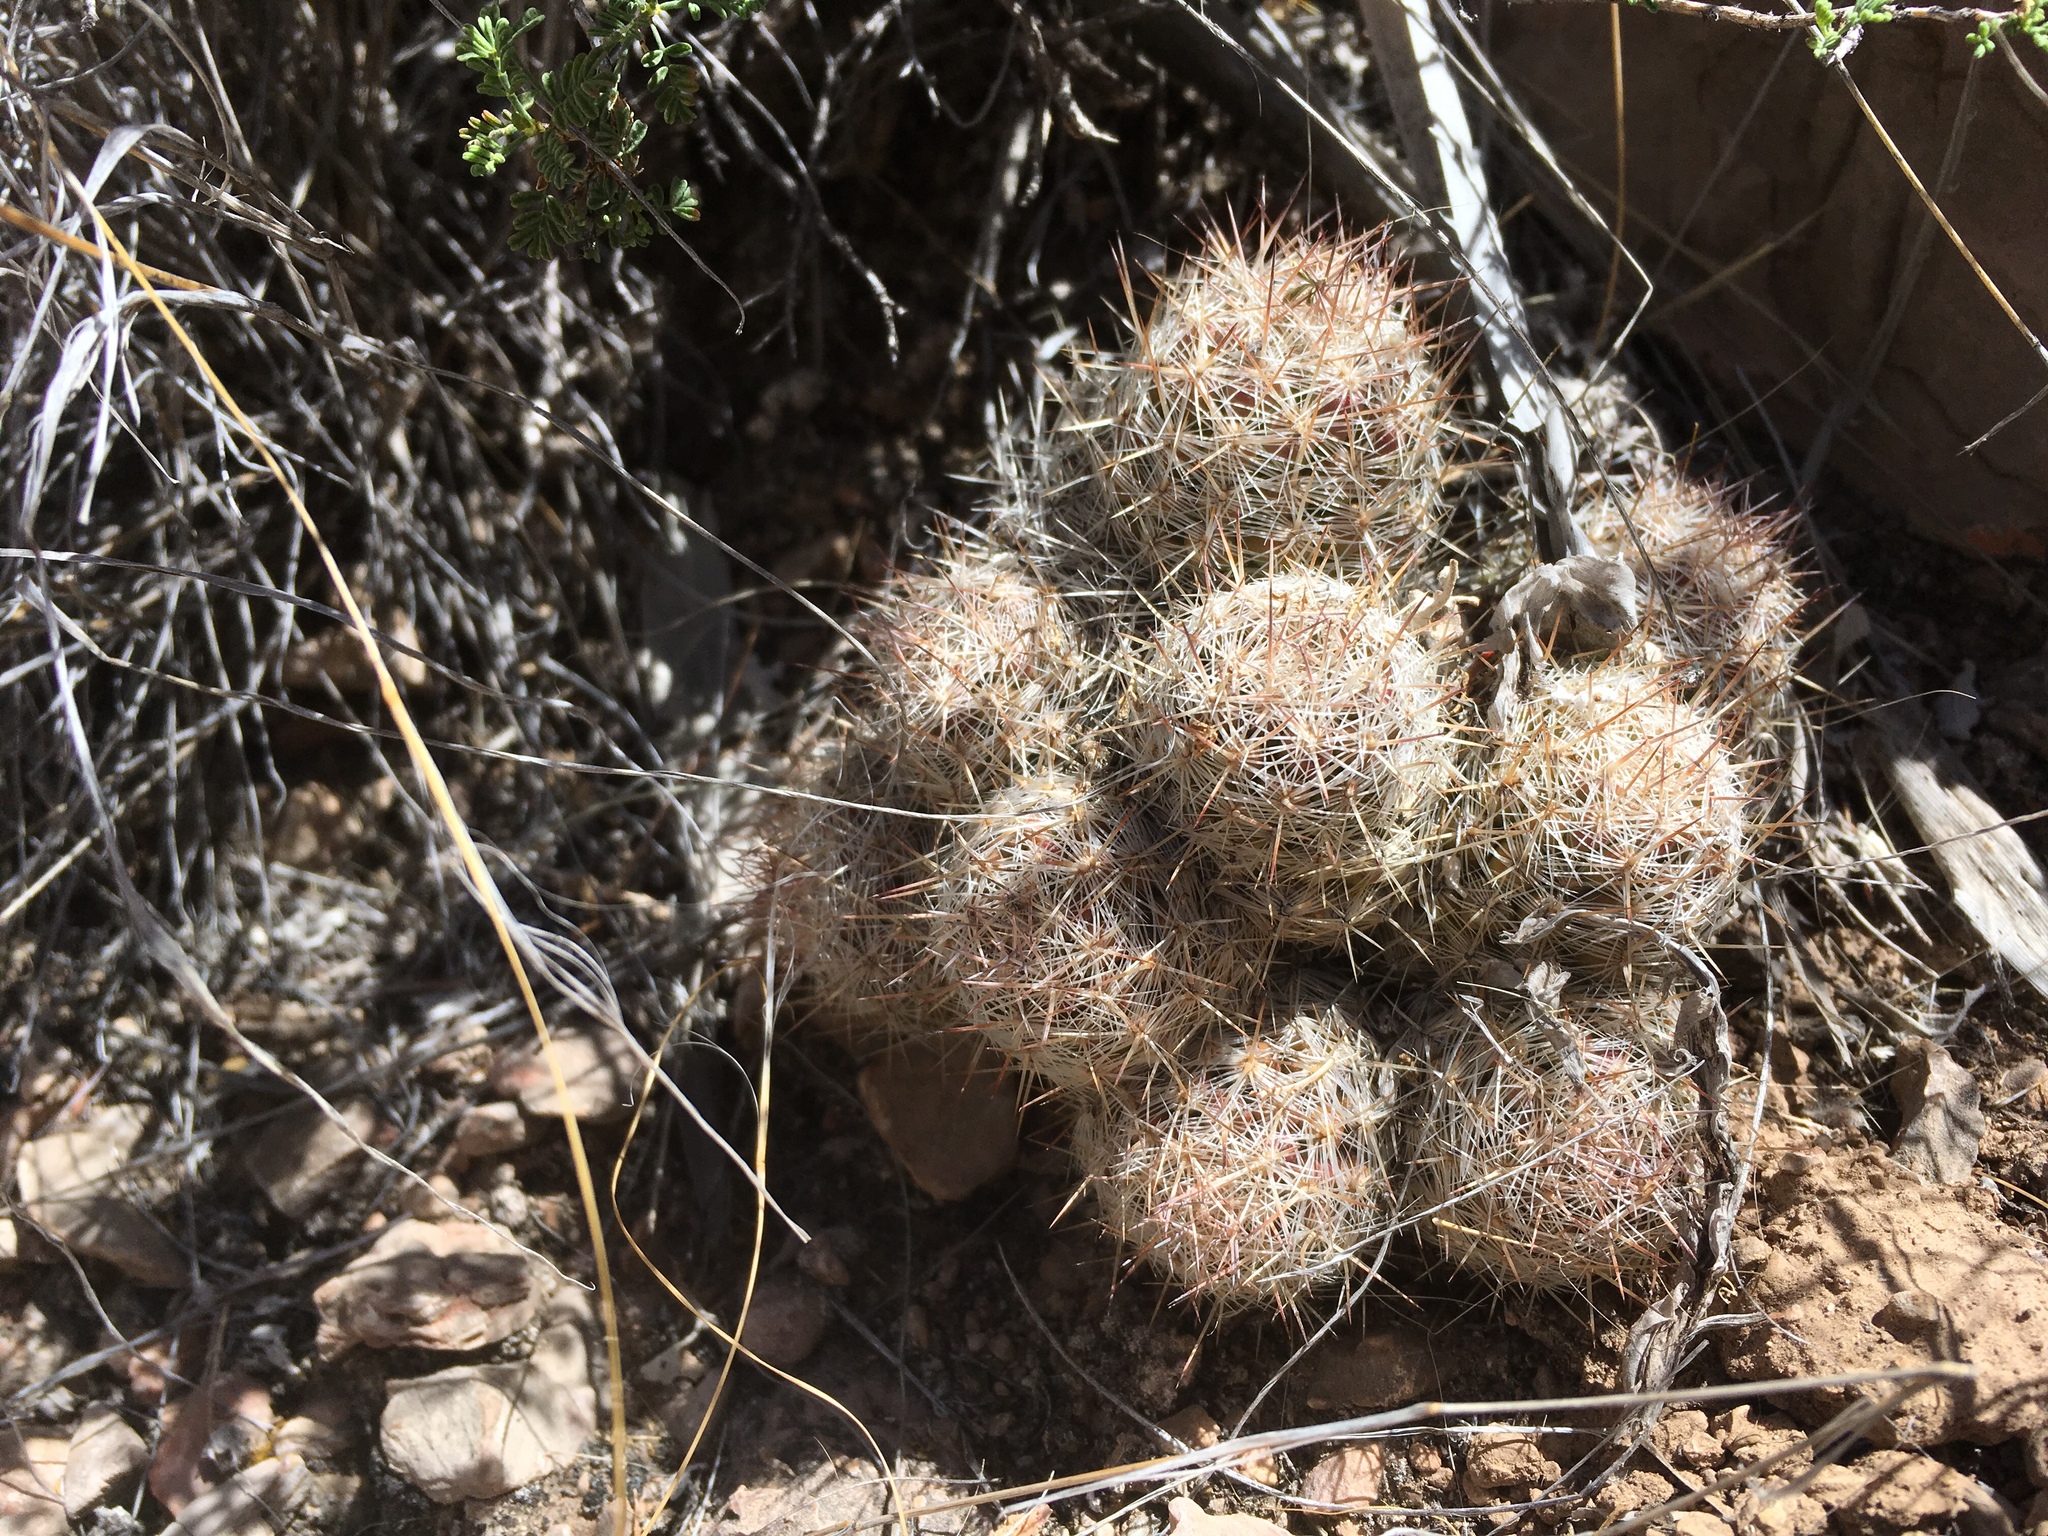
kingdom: Plantae
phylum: Tracheophyta
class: Magnoliopsida
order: Caryophyllales
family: Cactaceae
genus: Pelecyphora
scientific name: Pelecyphora tuberculosa
